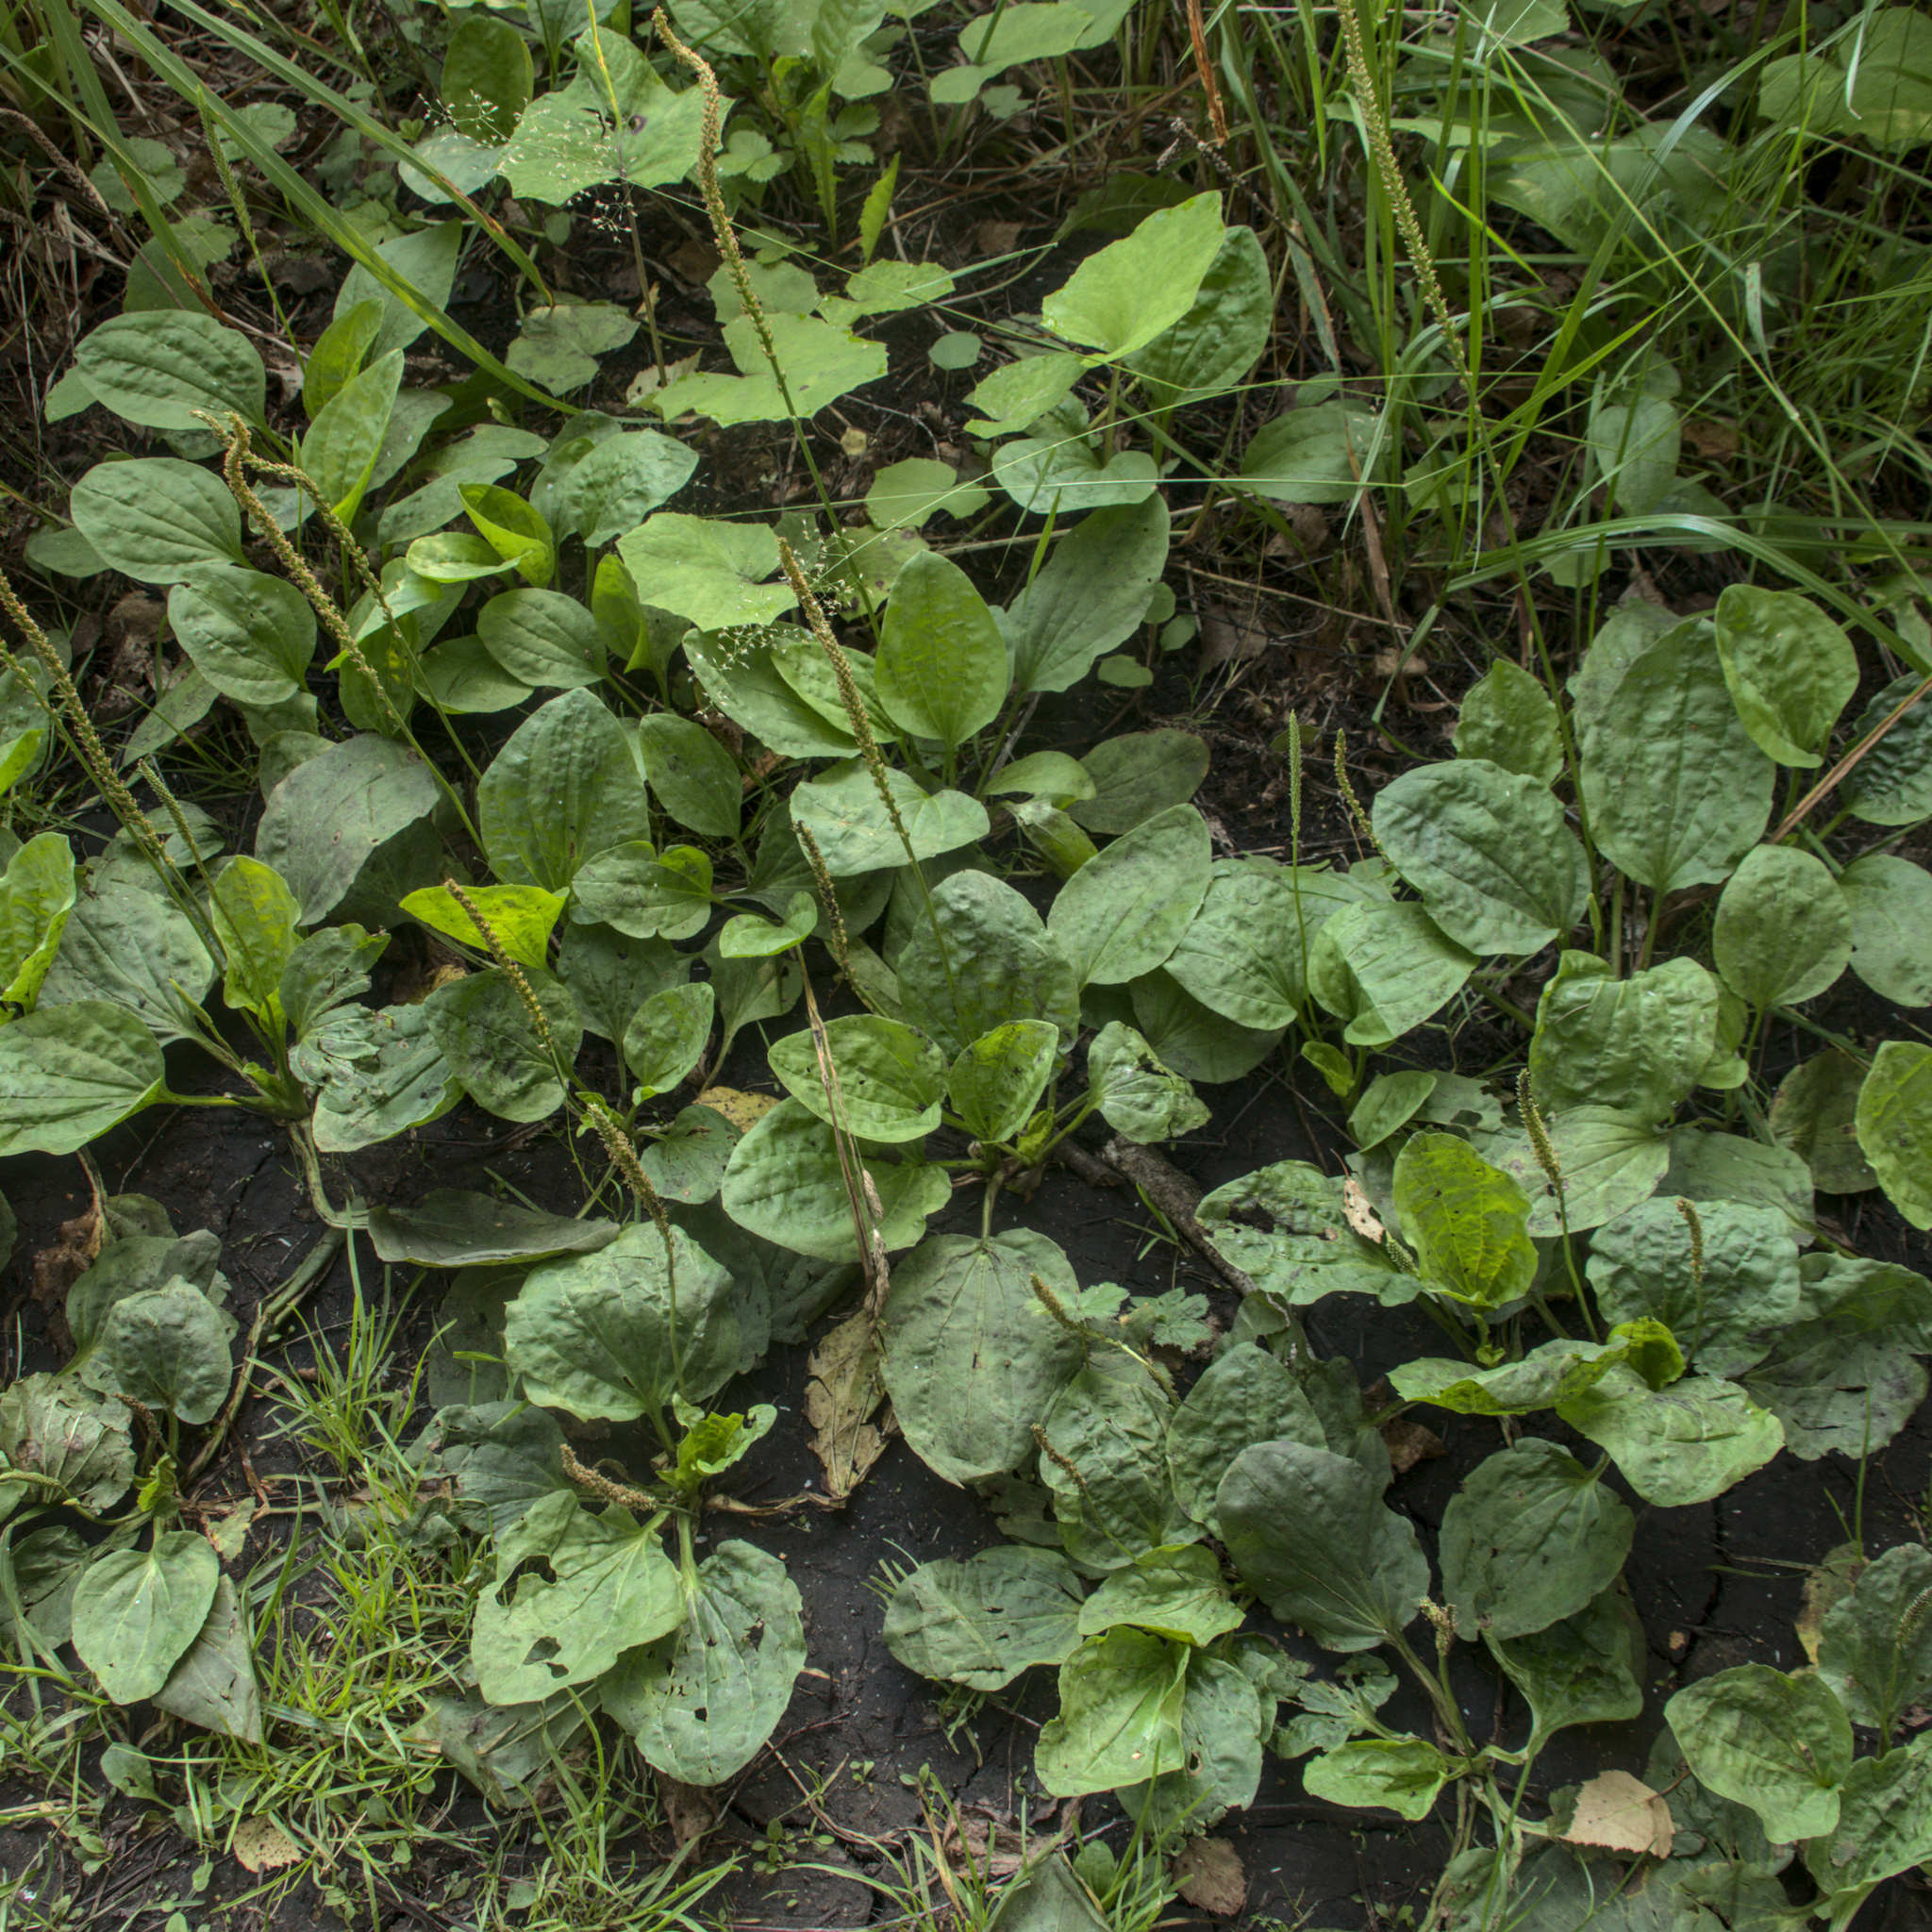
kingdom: Plantae
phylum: Tracheophyta
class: Magnoliopsida
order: Lamiales
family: Plantaginaceae
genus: Plantago
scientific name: Plantago major
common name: Common plantain
